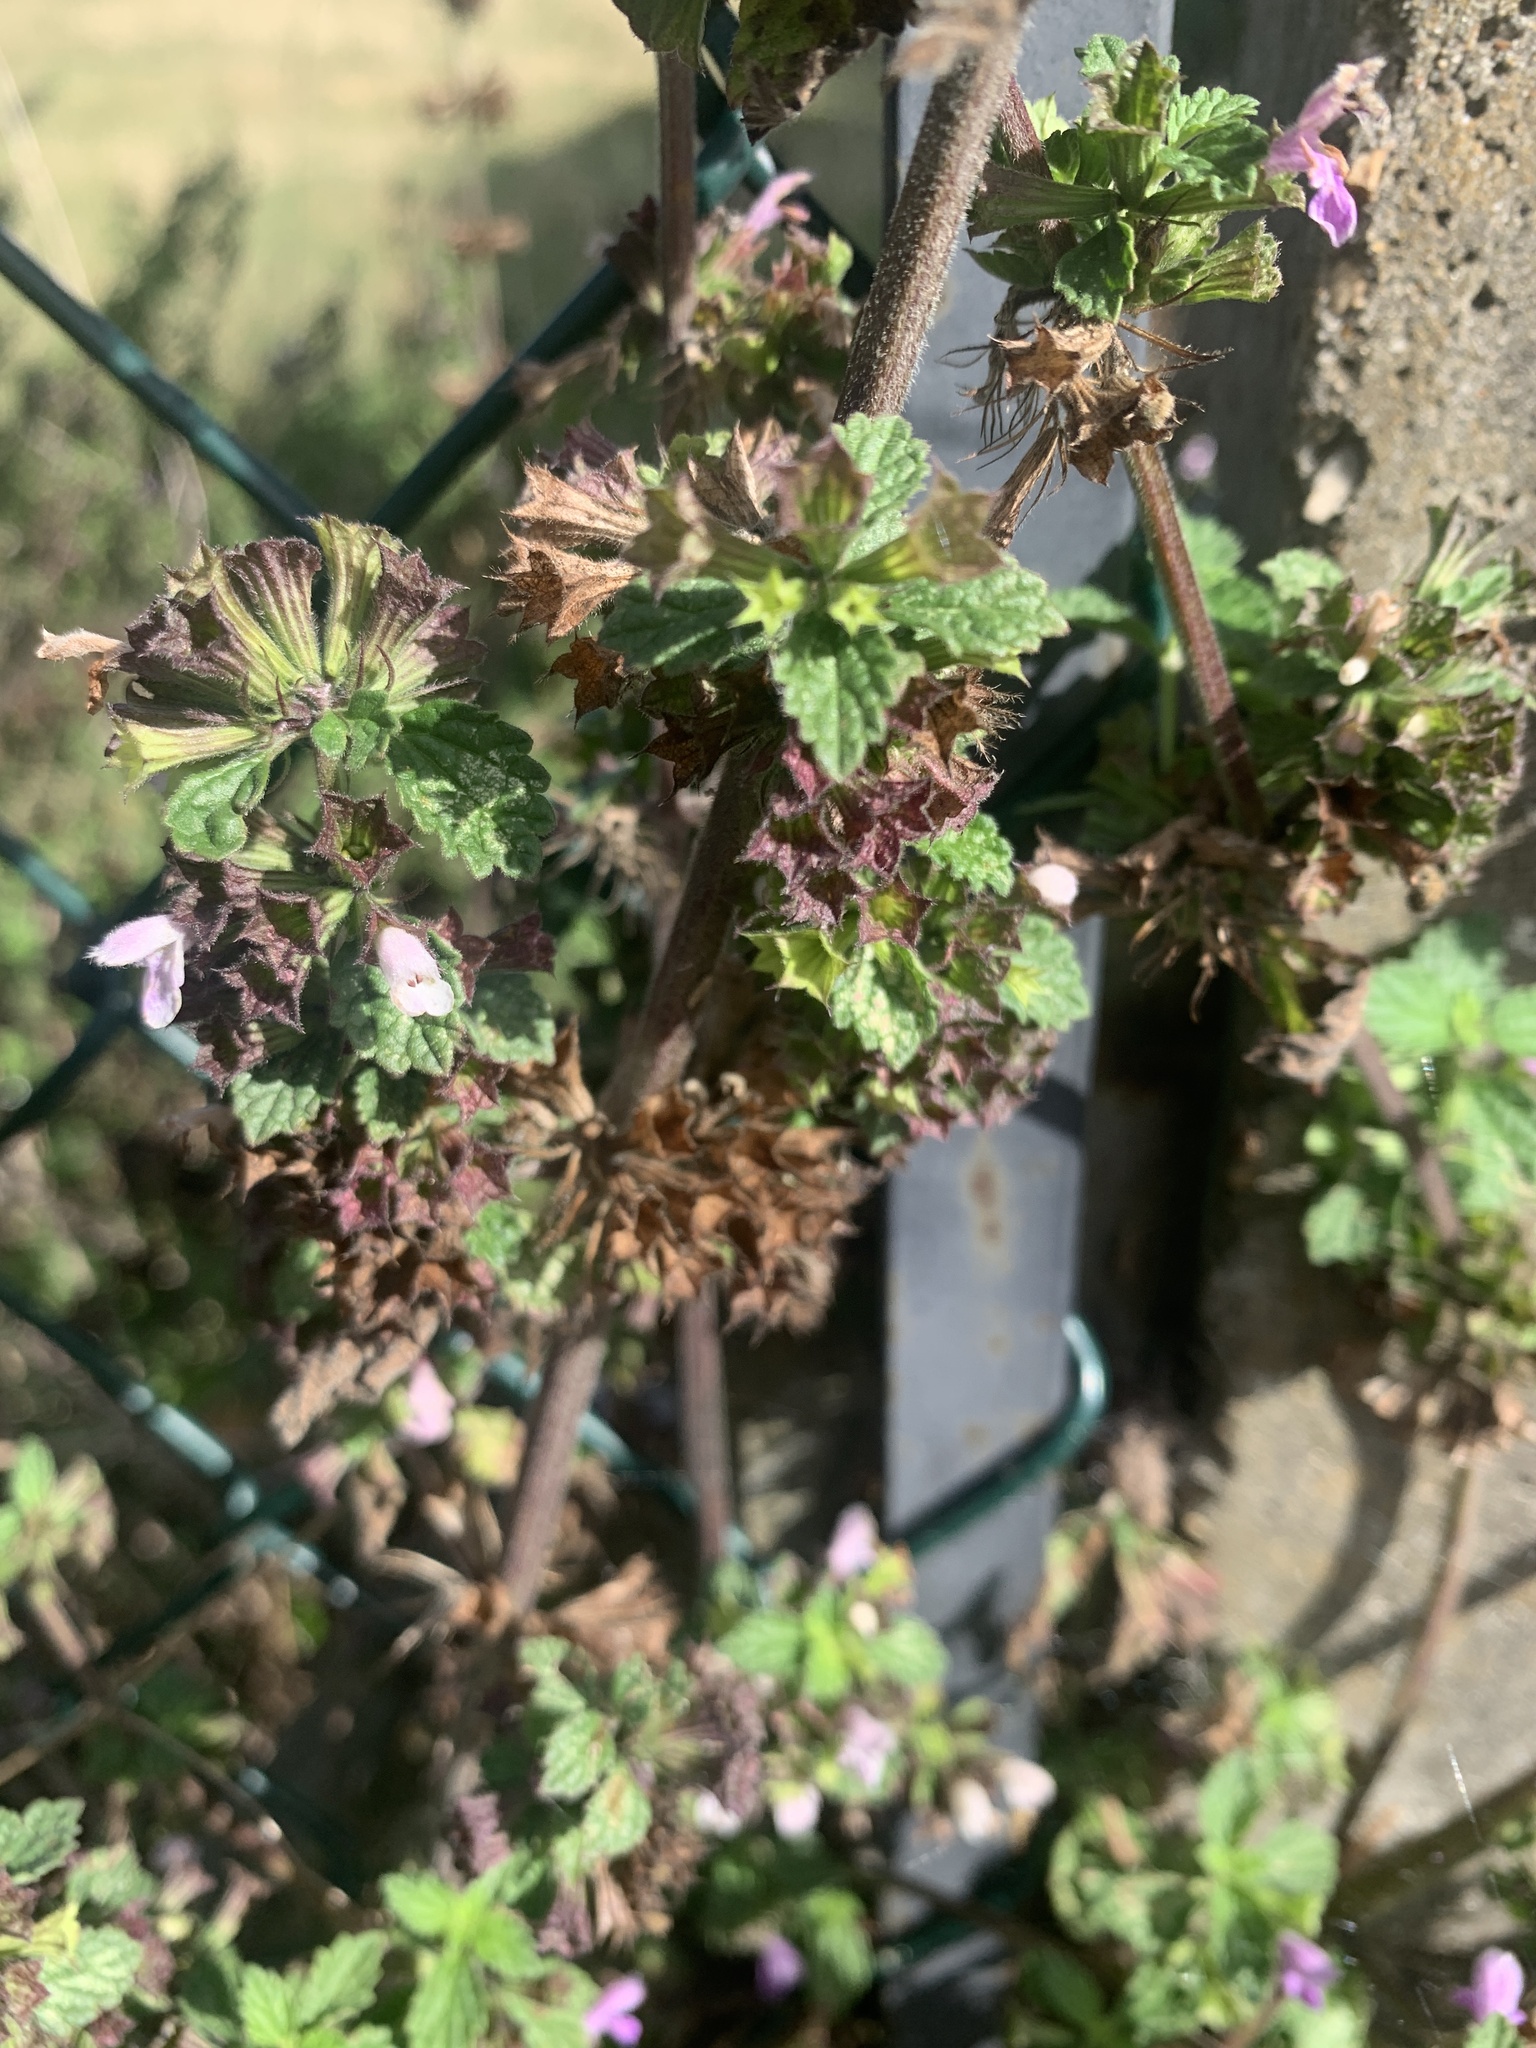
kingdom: Plantae
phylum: Tracheophyta
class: Magnoliopsida
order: Lamiales
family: Lamiaceae
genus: Ballota
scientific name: Ballota nigra
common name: Black horehound
